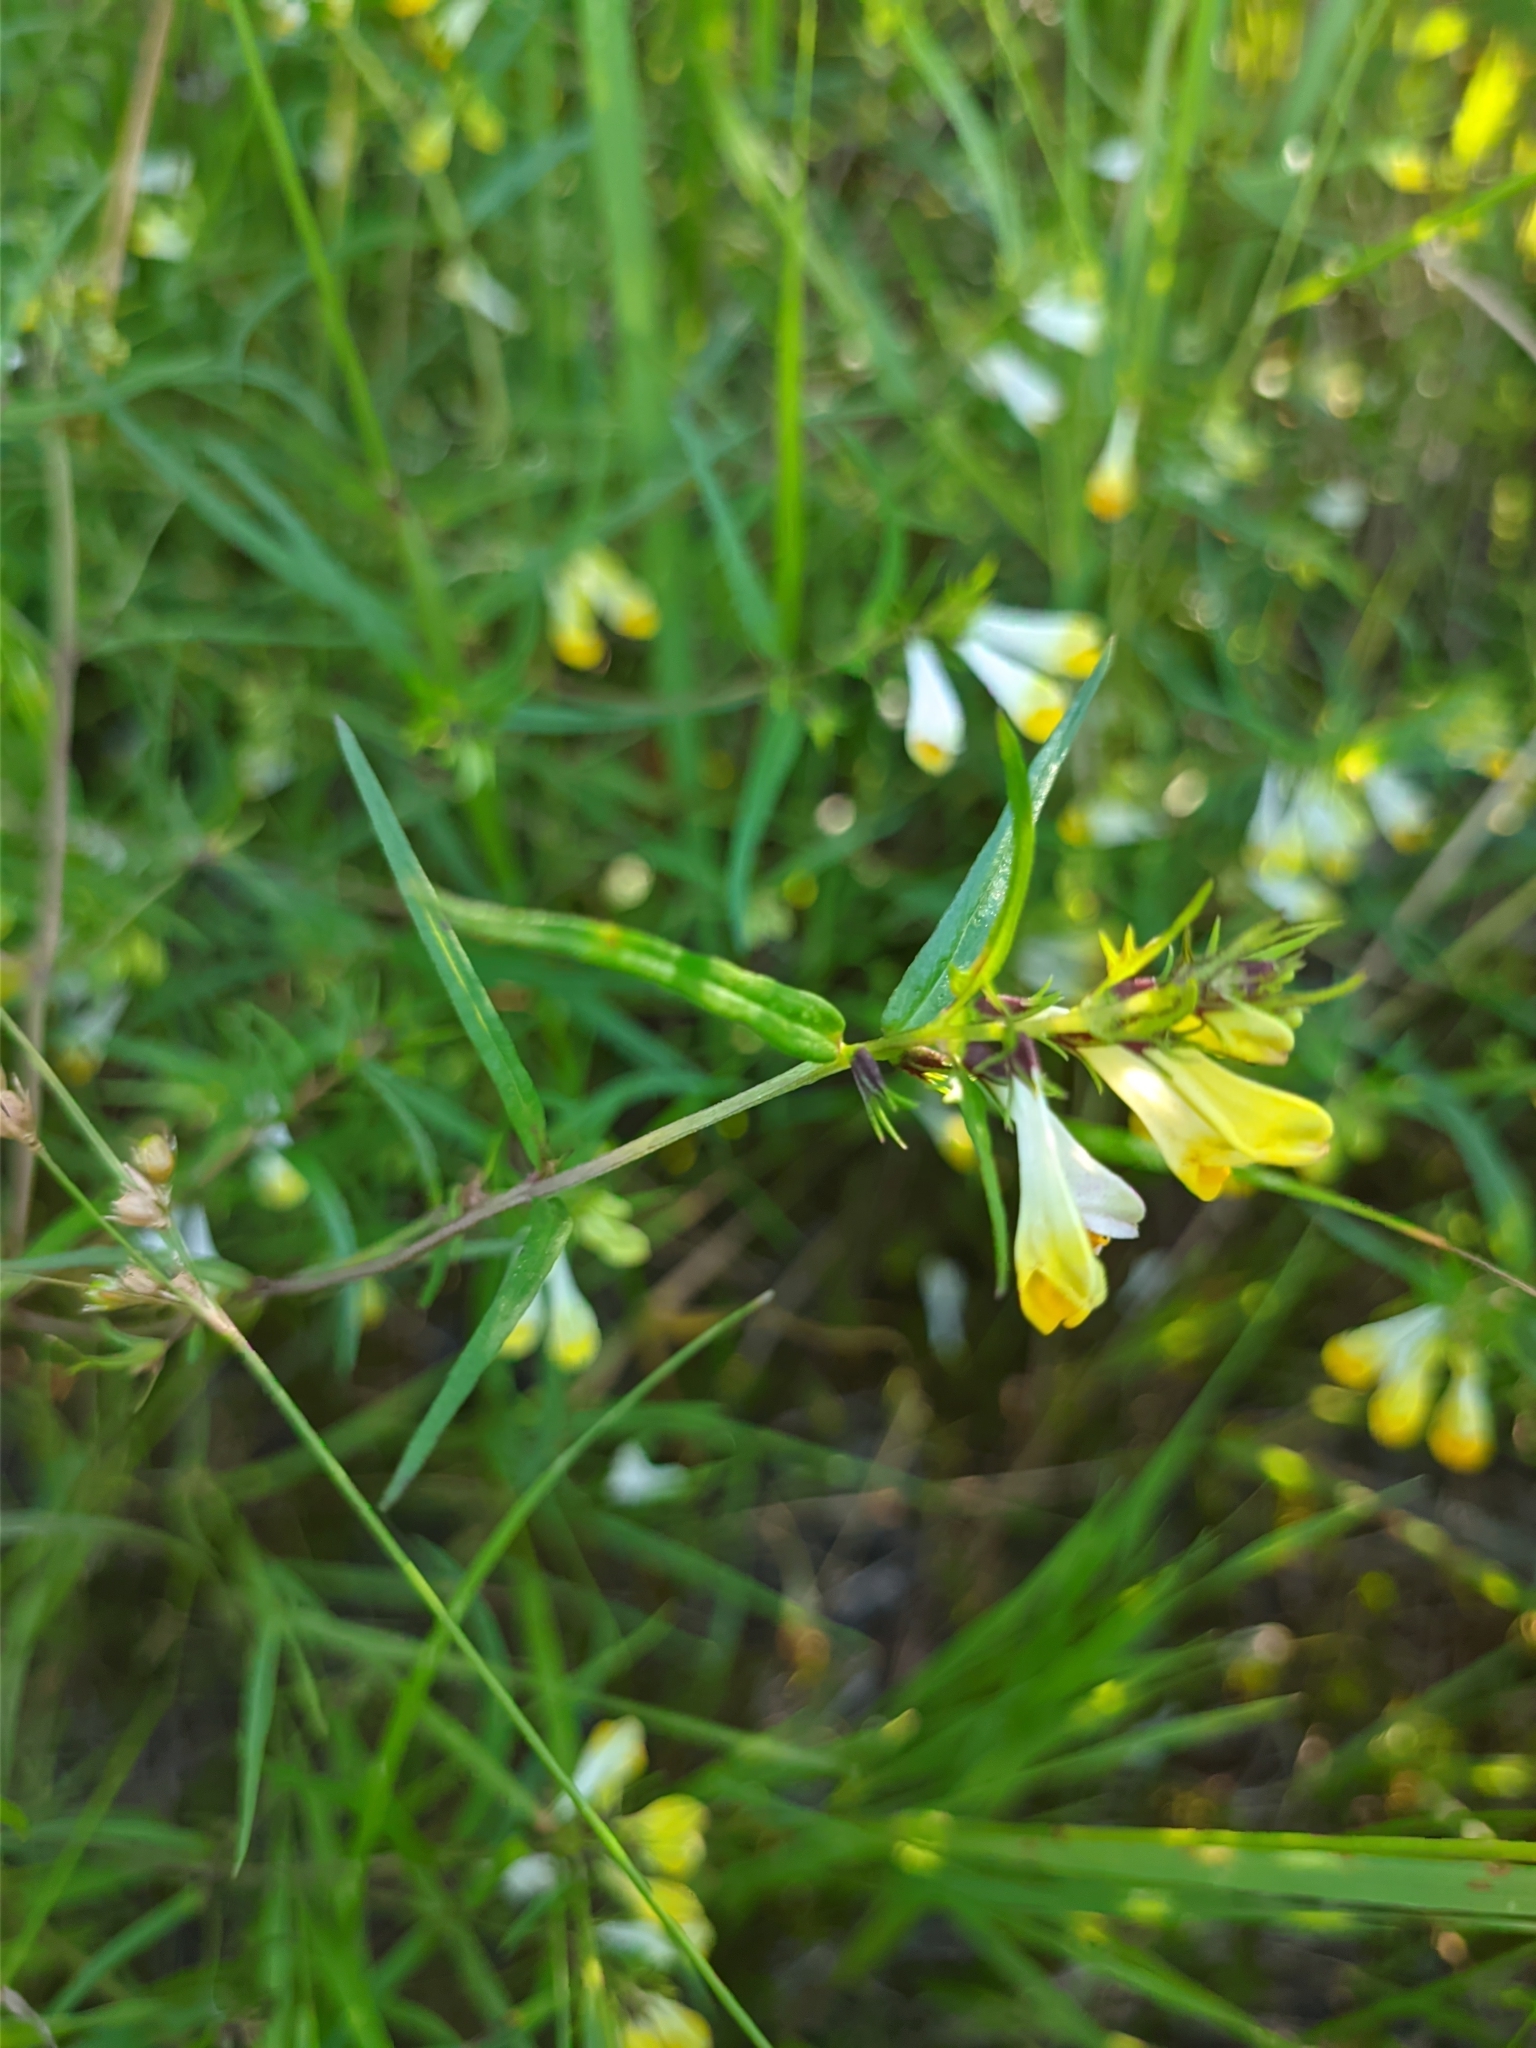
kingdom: Plantae
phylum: Tracheophyta
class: Magnoliopsida
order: Lamiales
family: Orobanchaceae
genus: Melampyrum
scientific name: Melampyrum pratense
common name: Common cow-wheat
